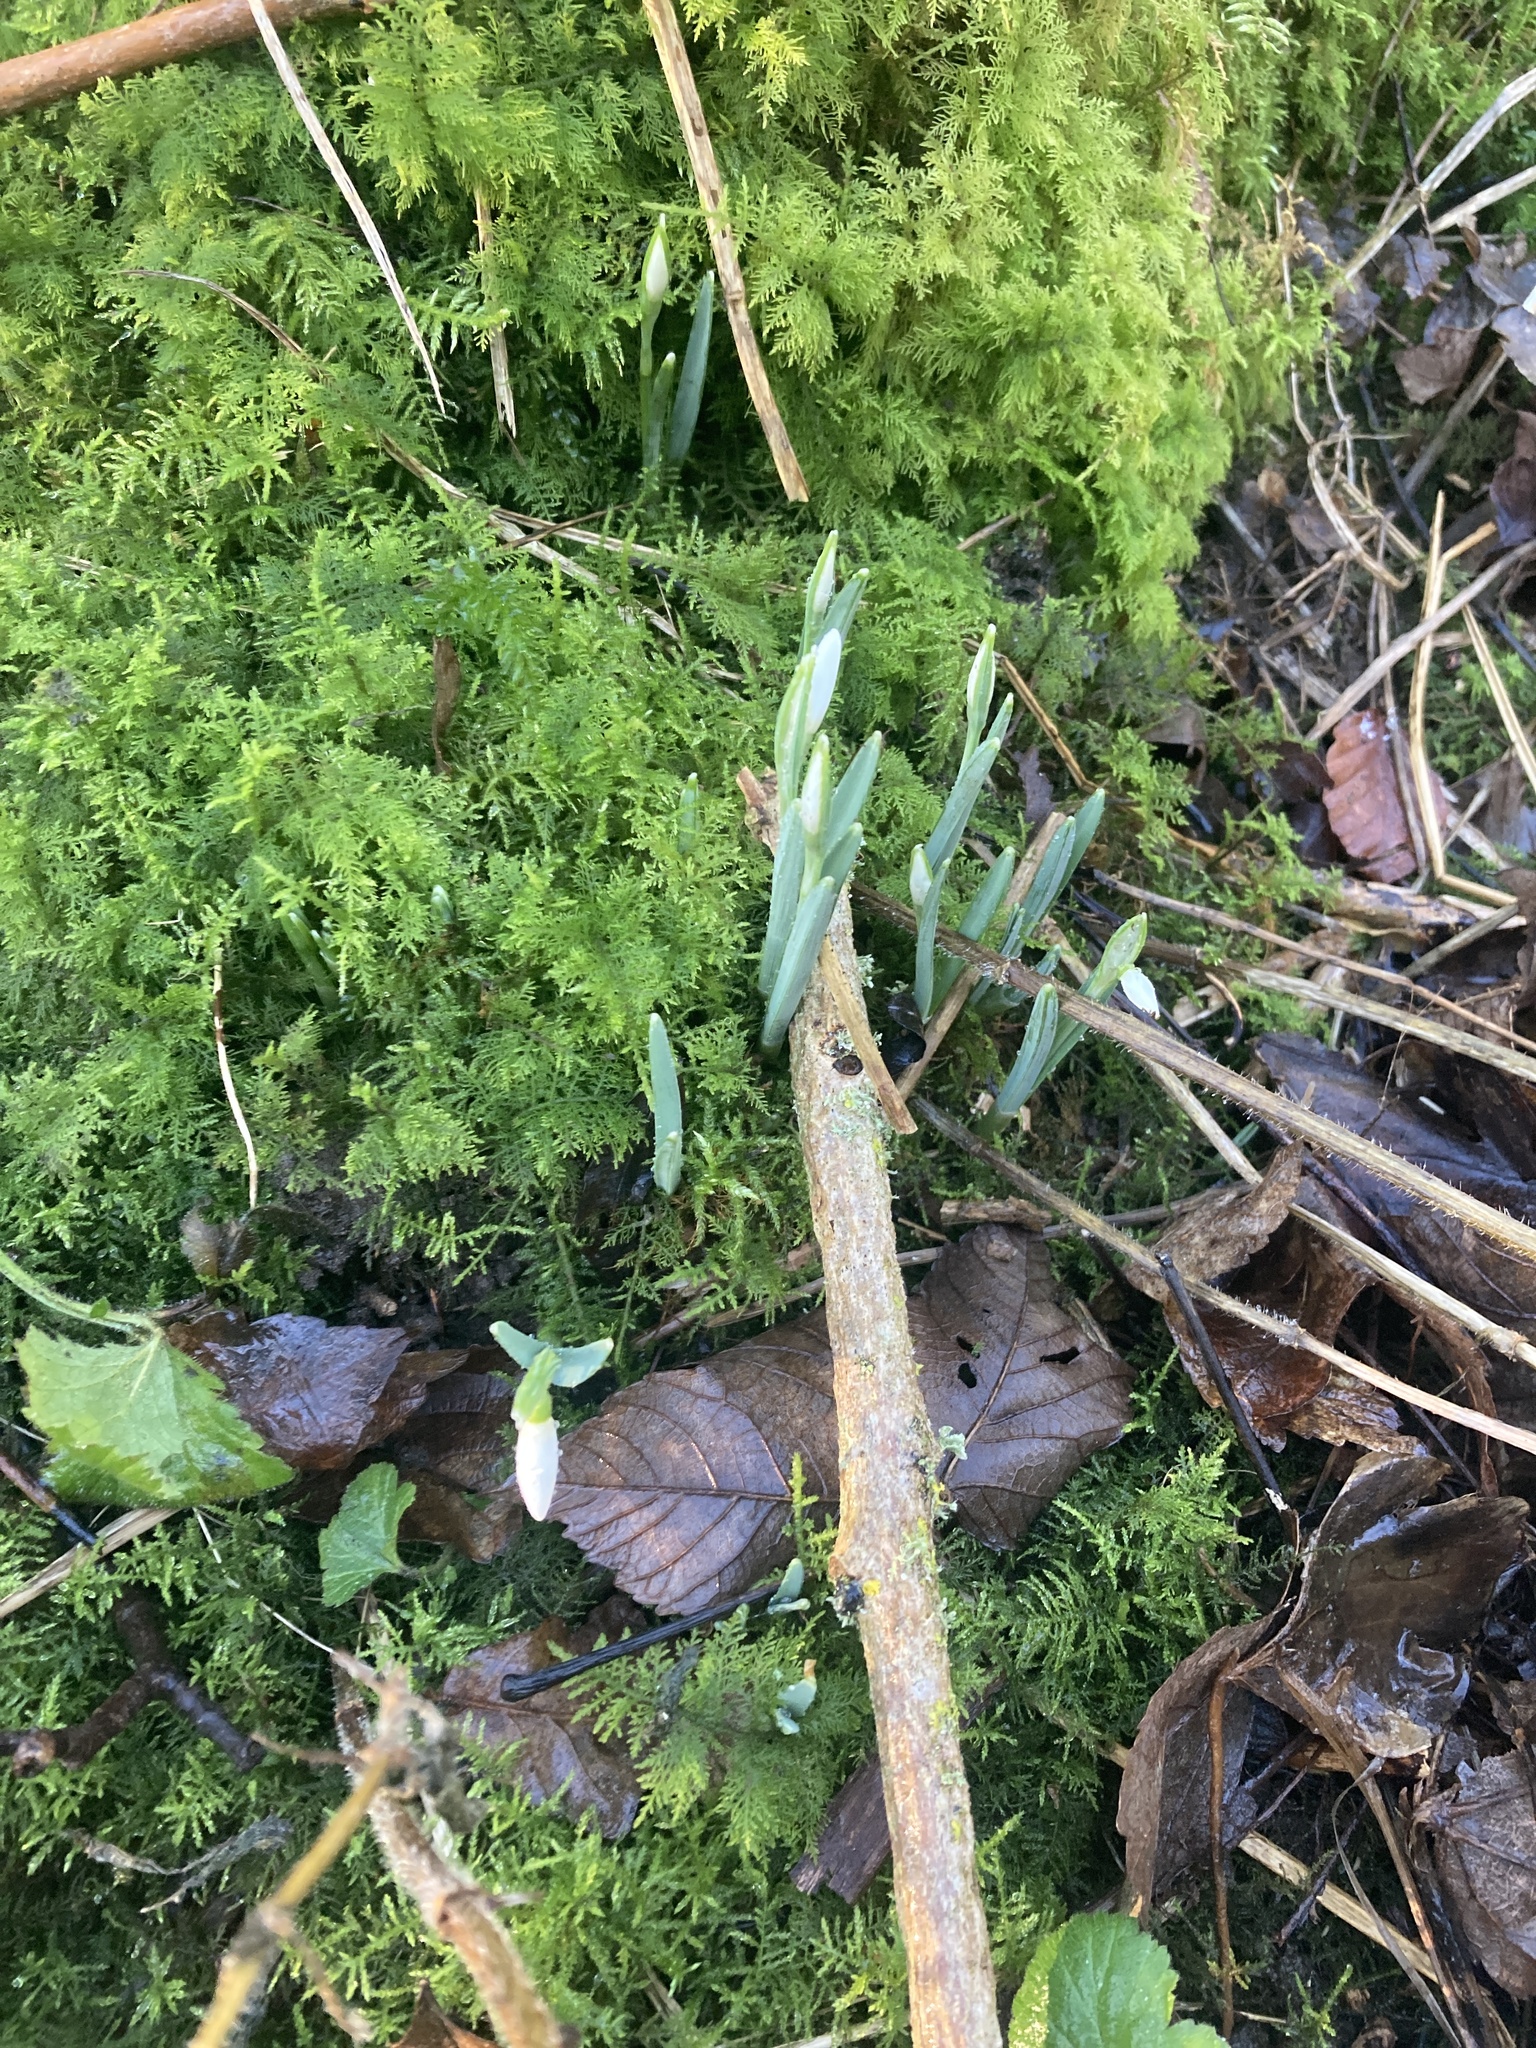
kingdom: Plantae
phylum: Tracheophyta
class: Liliopsida
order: Asparagales
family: Amaryllidaceae
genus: Galanthus
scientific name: Galanthus nivalis
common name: Snowdrop
